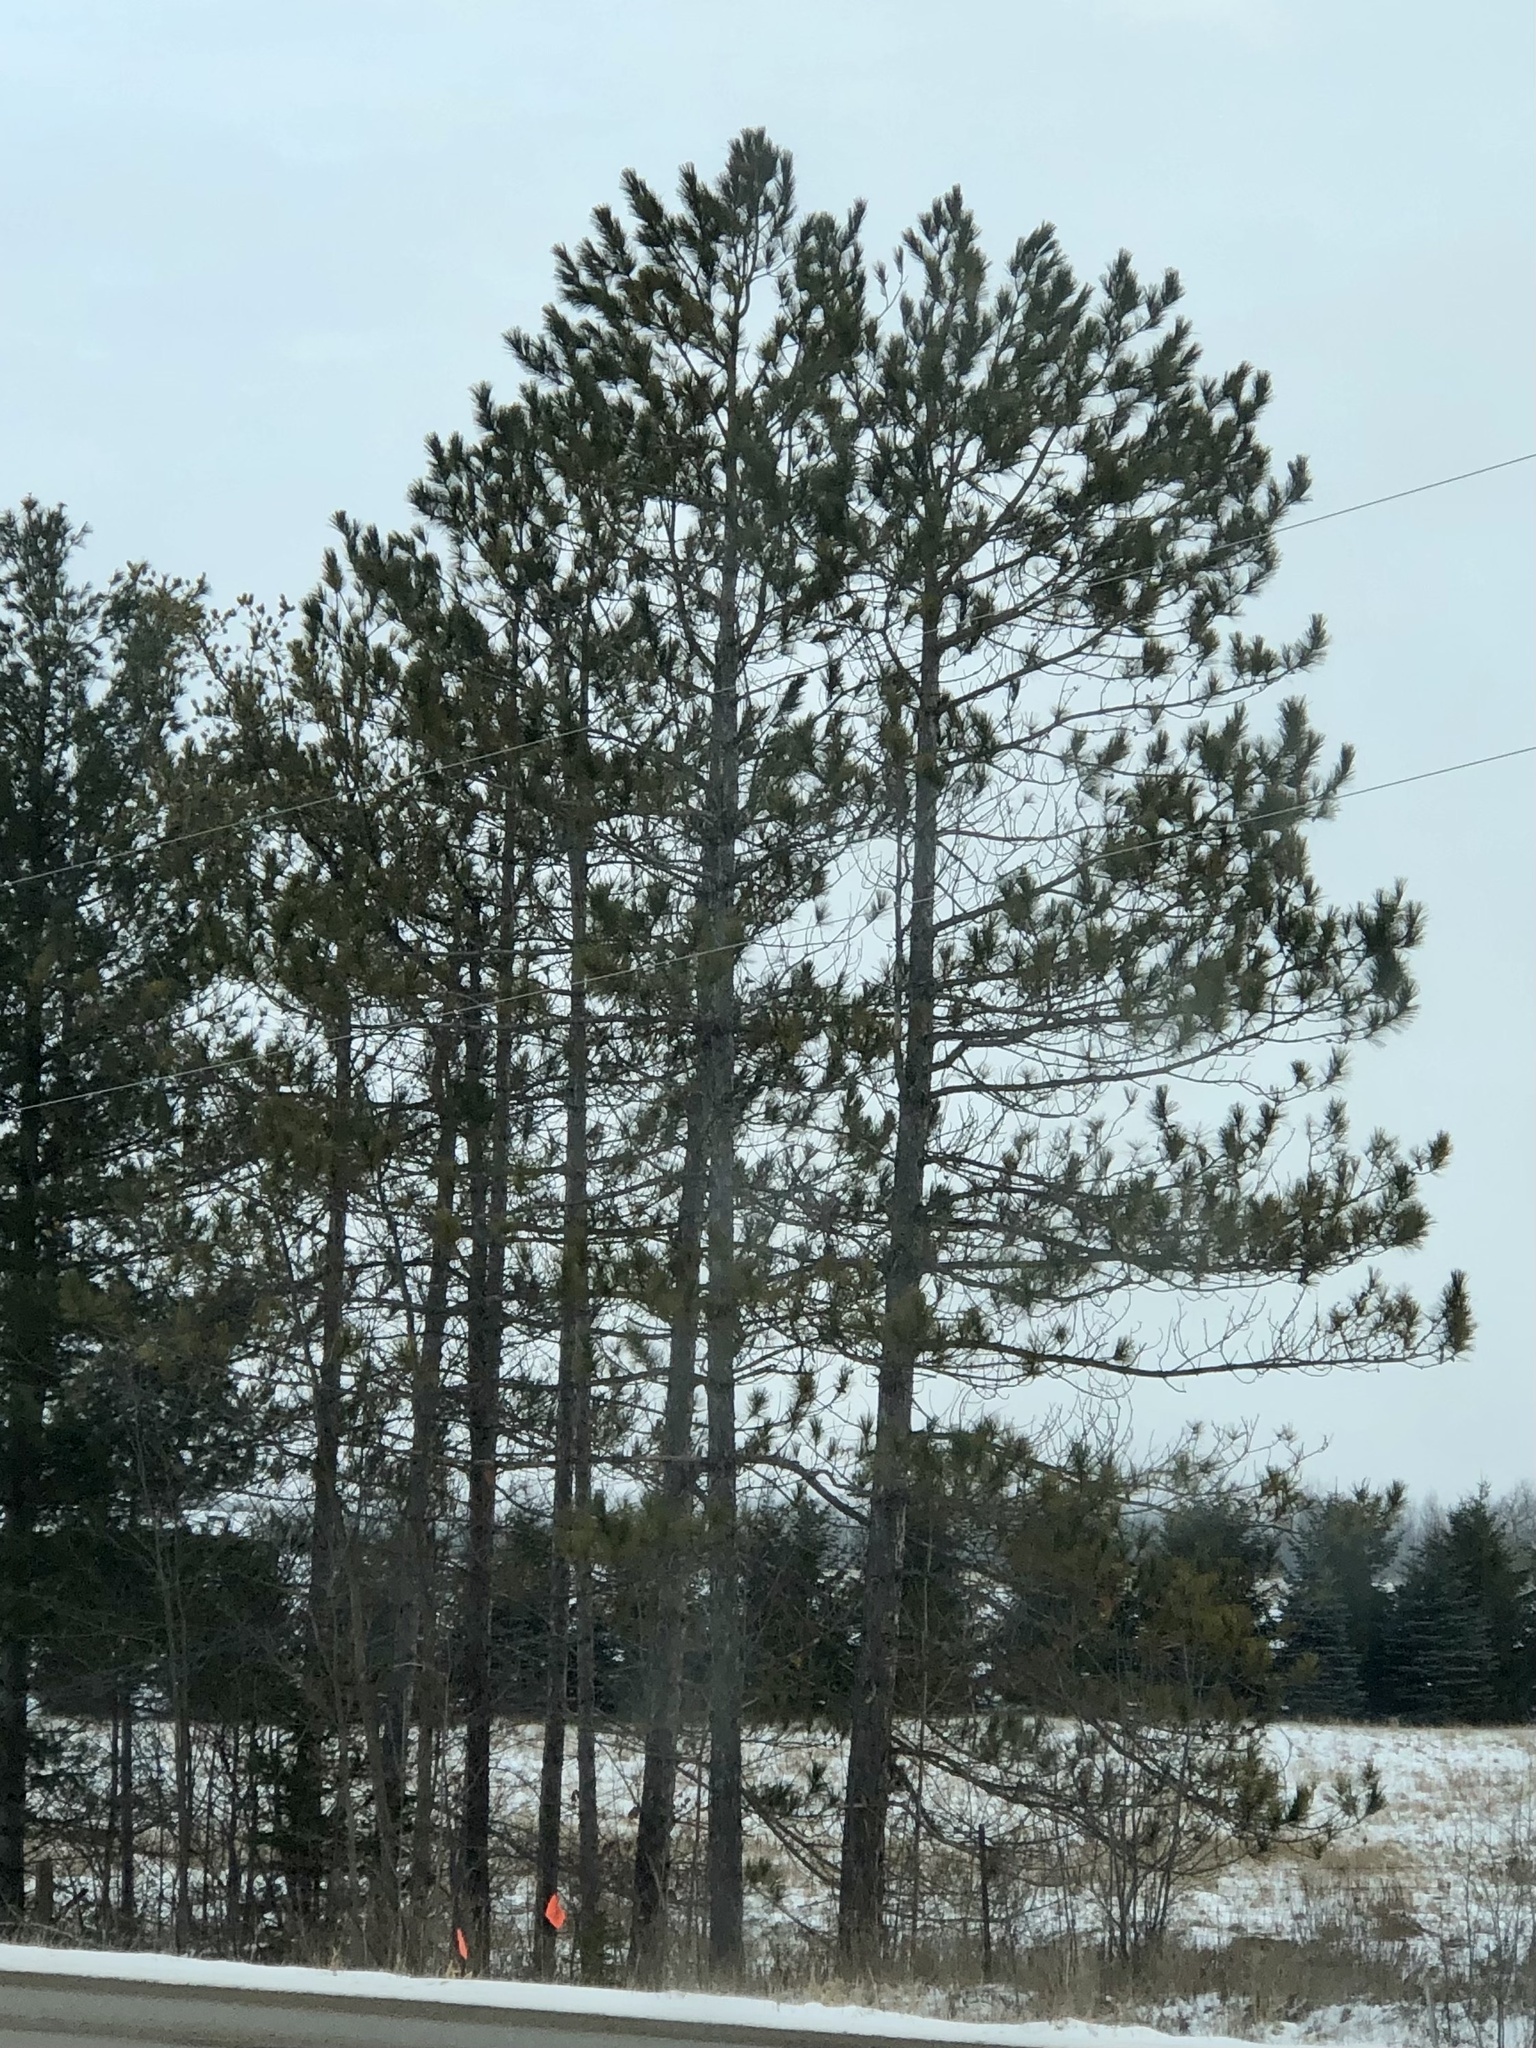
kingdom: Plantae
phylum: Tracheophyta
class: Pinopsida
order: Pinales
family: Pinaceae
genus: Pinus
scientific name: Pinus resinosa
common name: Norway pine
